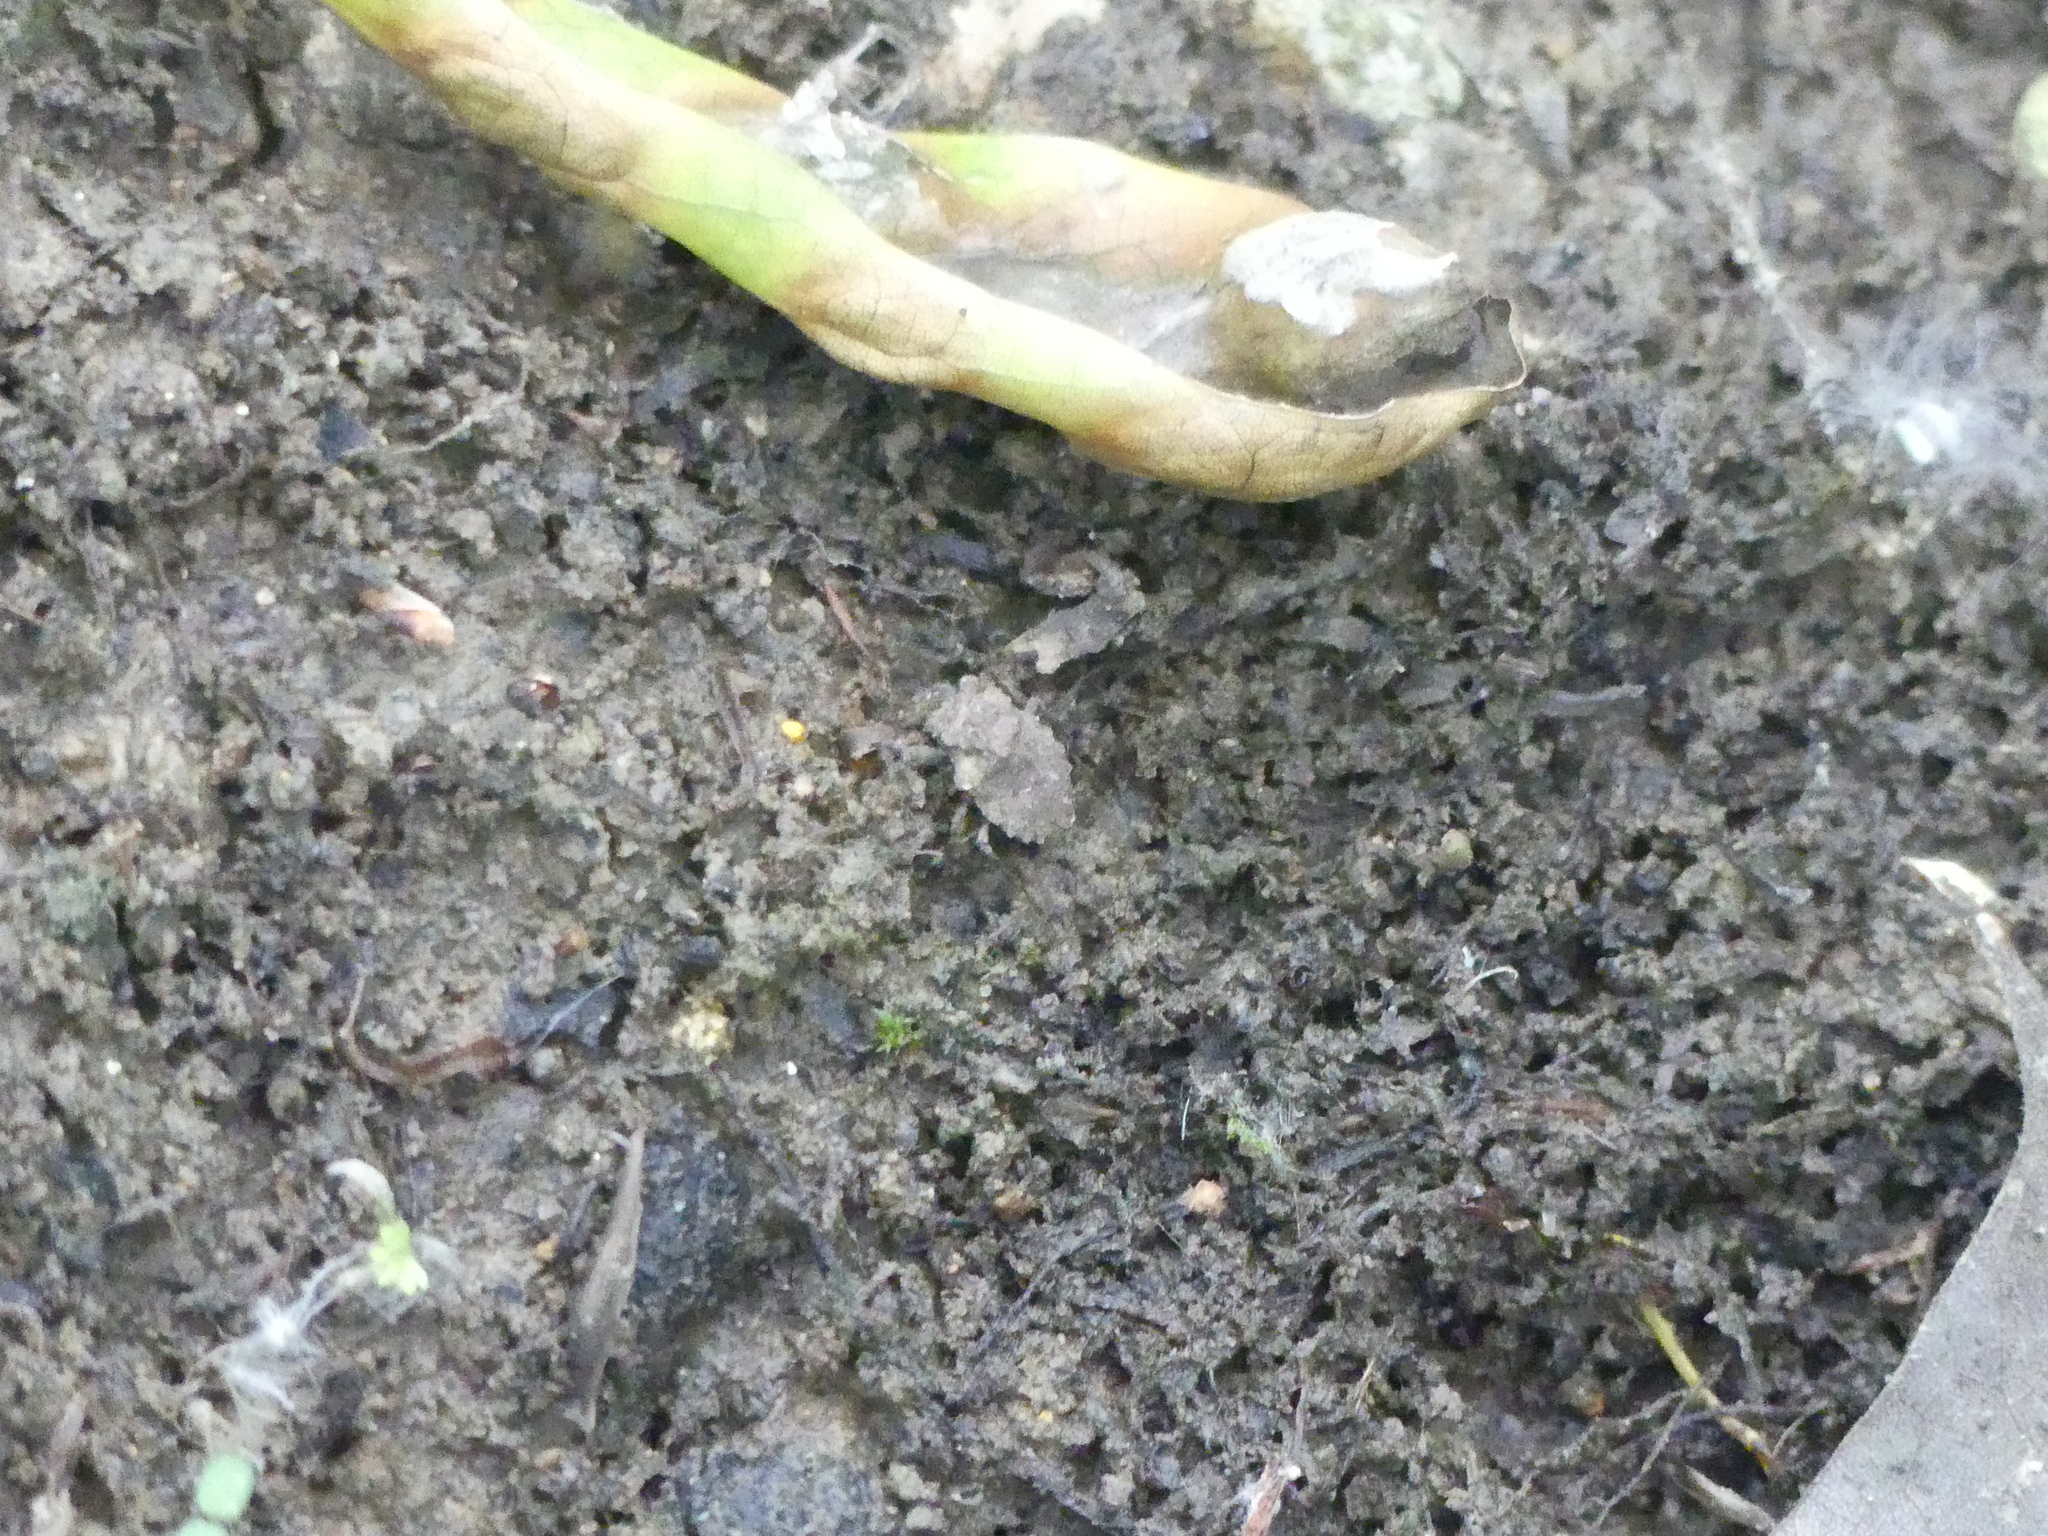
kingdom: Animalia
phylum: Arthropoda
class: Insecta
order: Hemiptera
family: Gelastocoridae
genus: Gelastocoris
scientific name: Gelastocoris oculatus
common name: Toad bug
